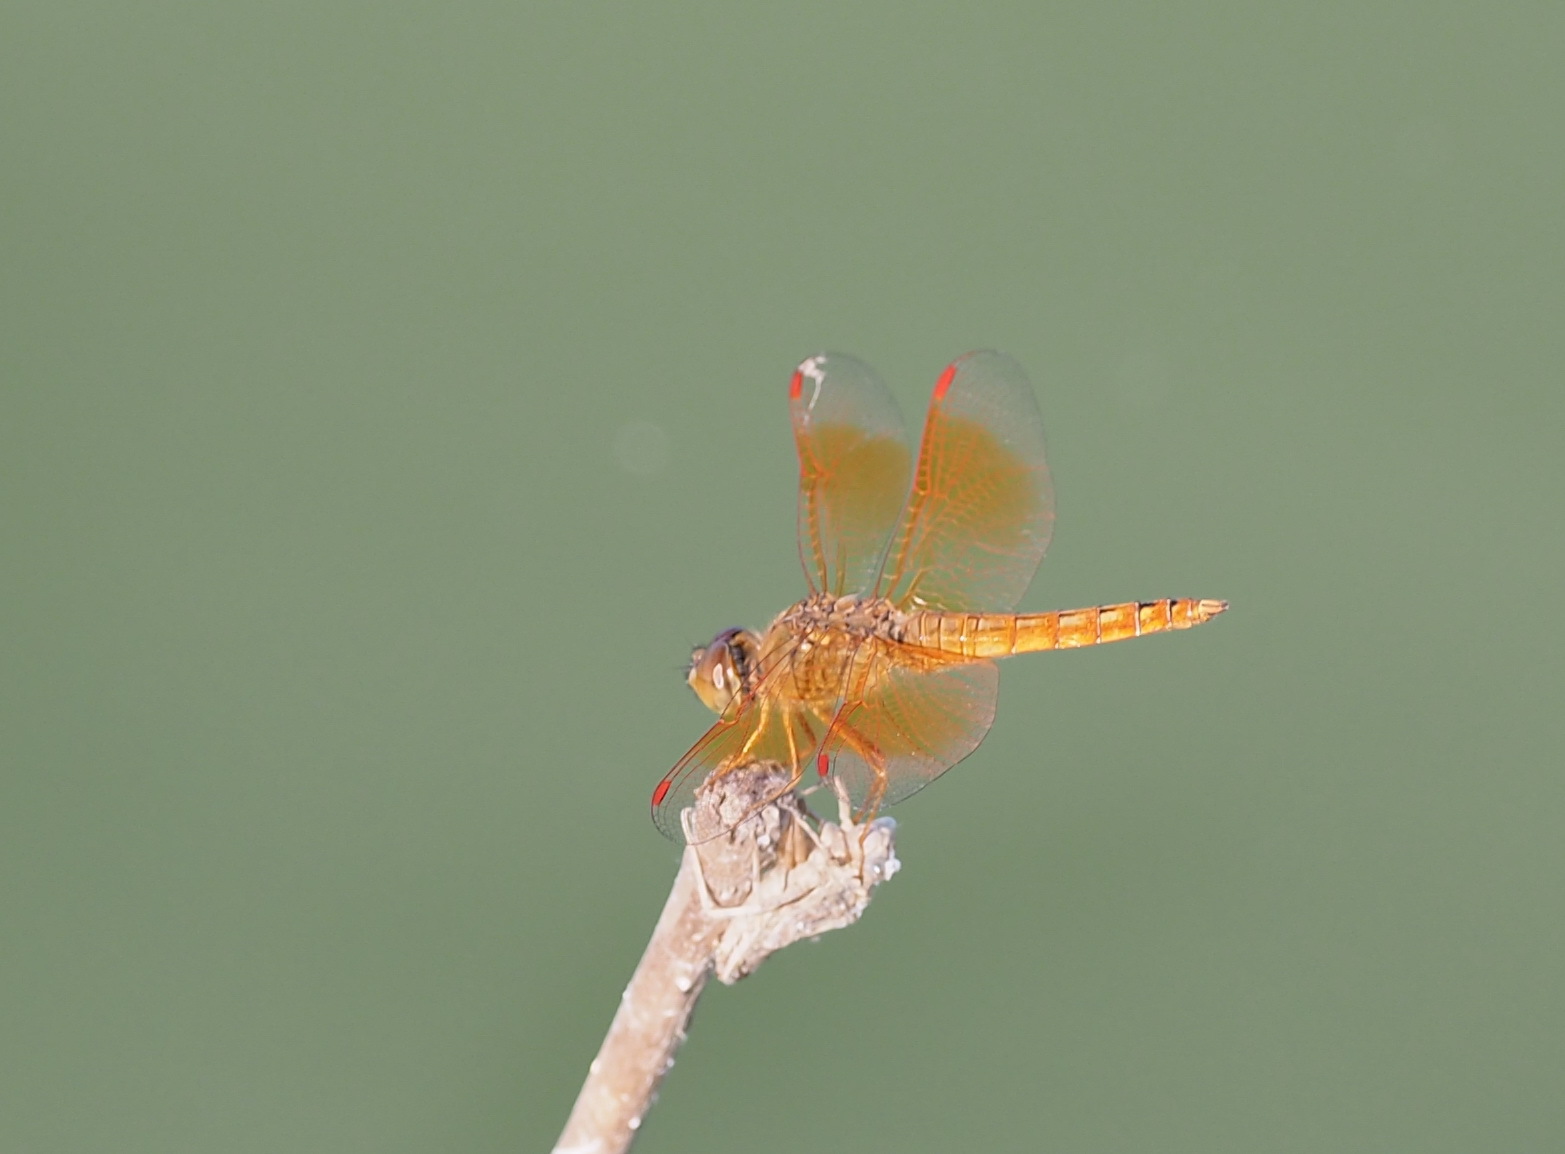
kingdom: Animalia
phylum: Arthropoda
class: Insecta
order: Odonata
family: Libellulidae
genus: Brachythemis
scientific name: Brachythemis contaminata
